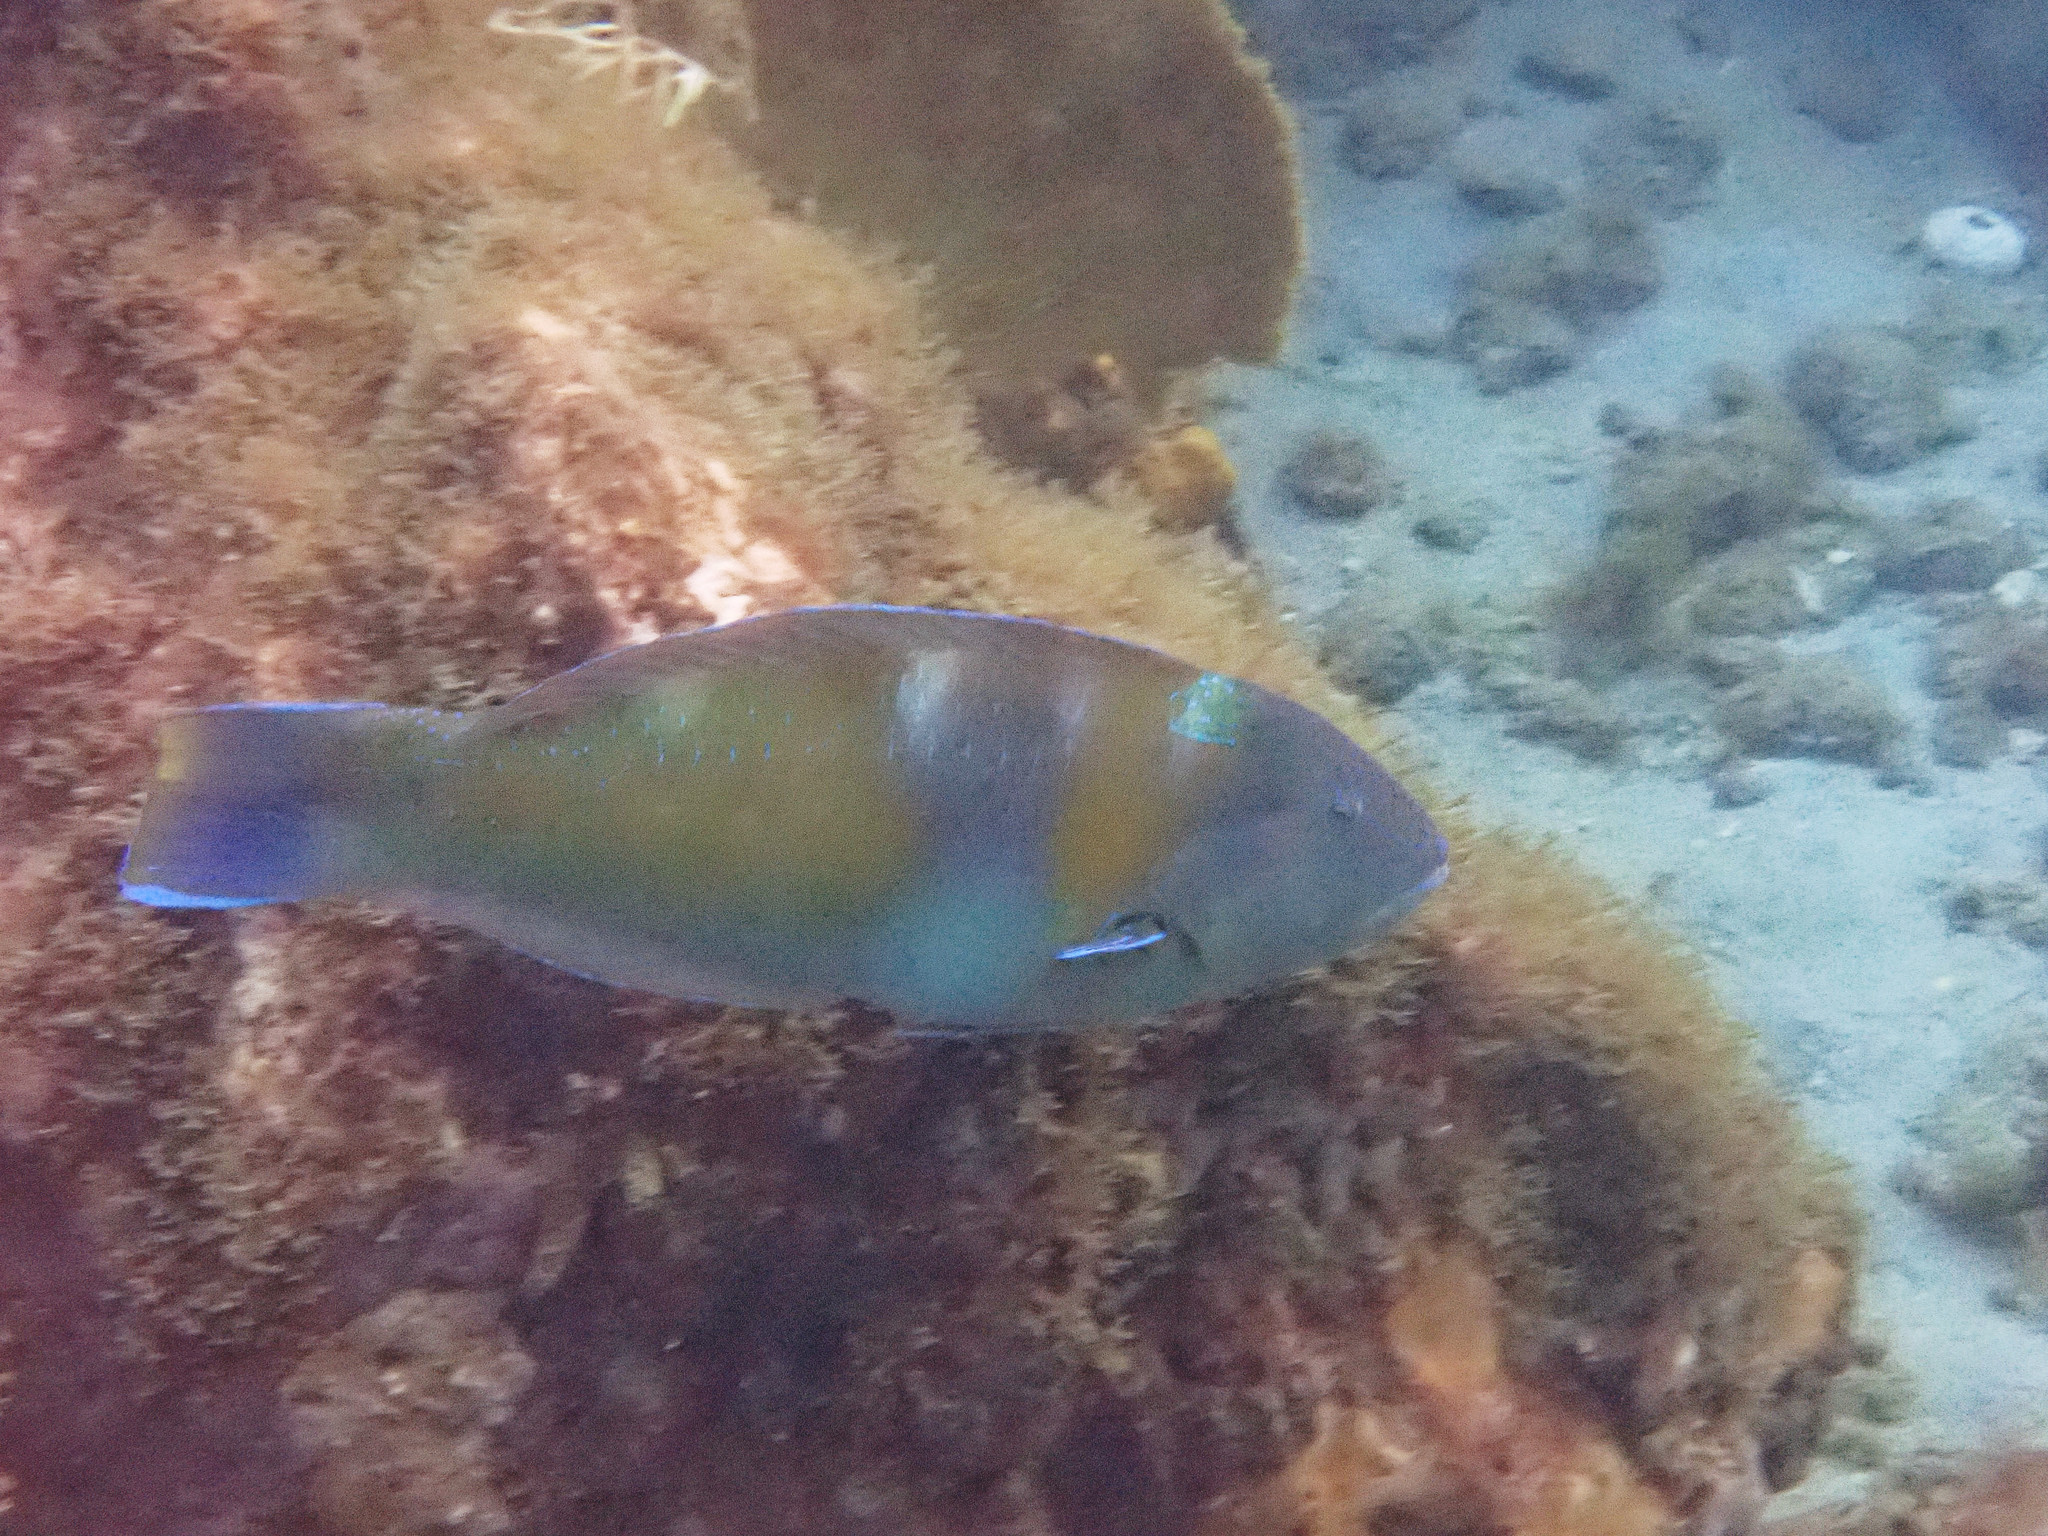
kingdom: Animalia
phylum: Chordata
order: Perciformes
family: Labridae
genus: Halichoeres
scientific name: Halichoeres radiatus
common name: Puddingwife
